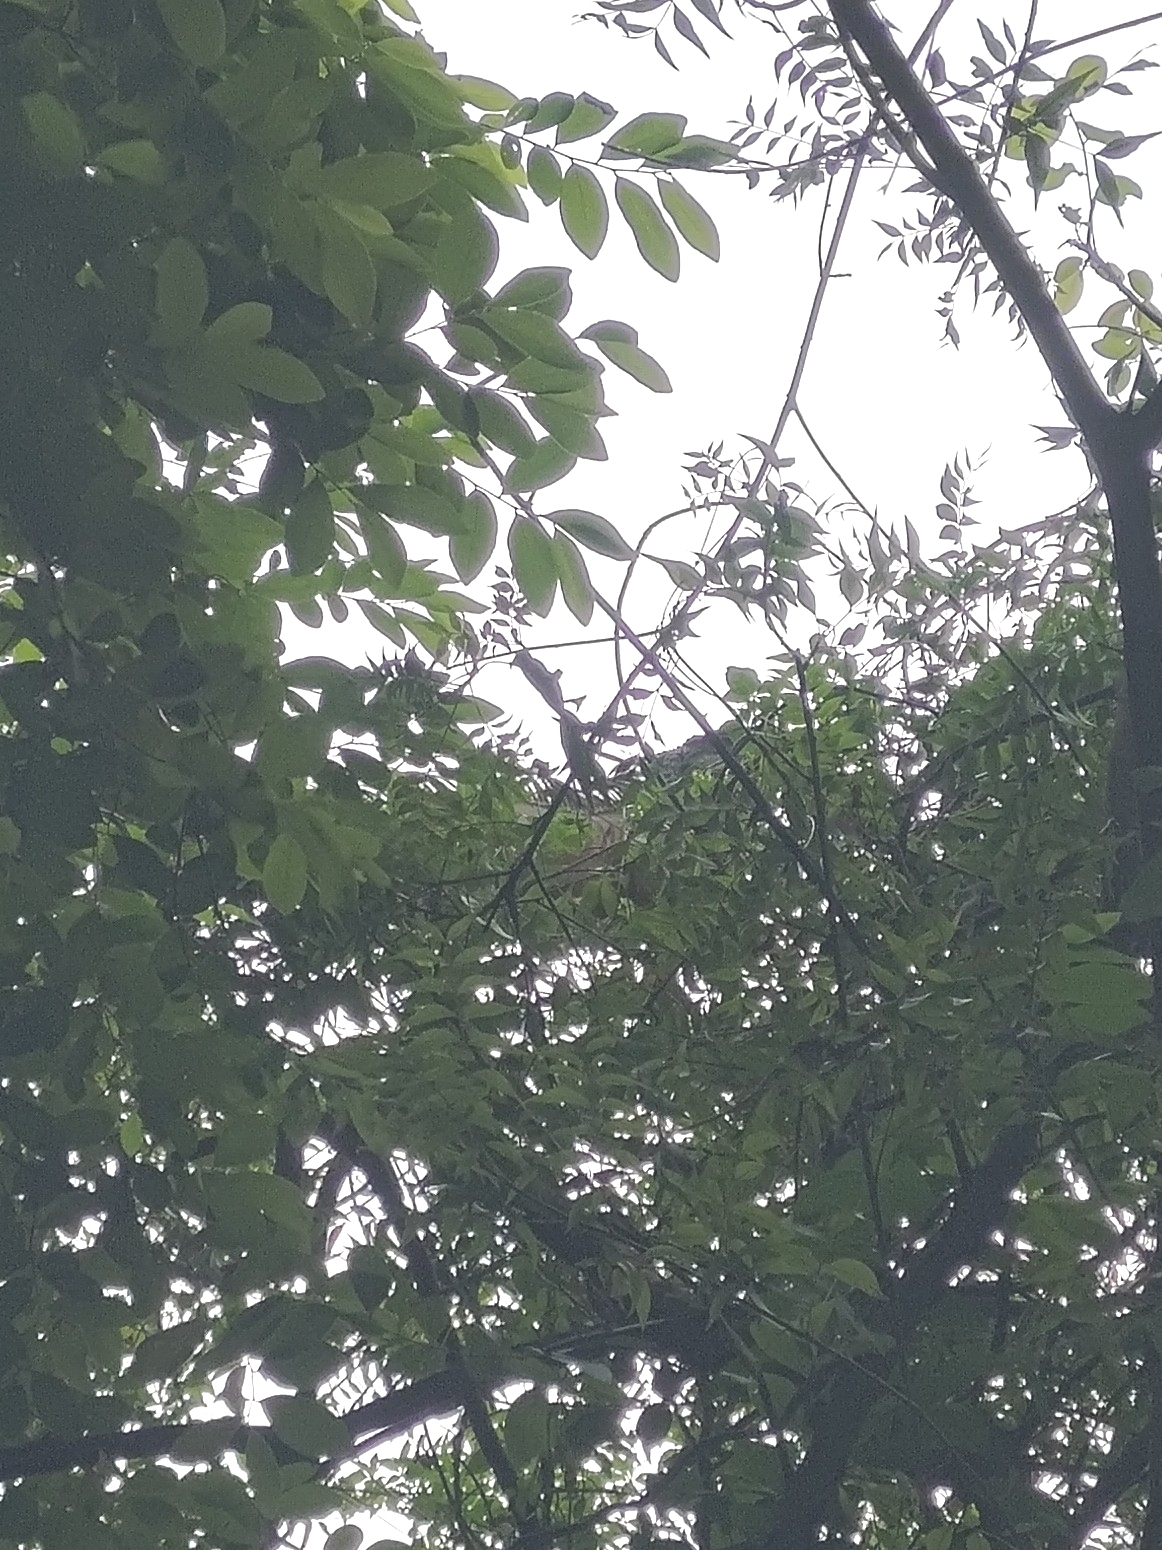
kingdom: Animalia
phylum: Chordata
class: Squamata
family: Iguanidae
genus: Iguana
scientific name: Iguana iguana
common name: Green iguana
